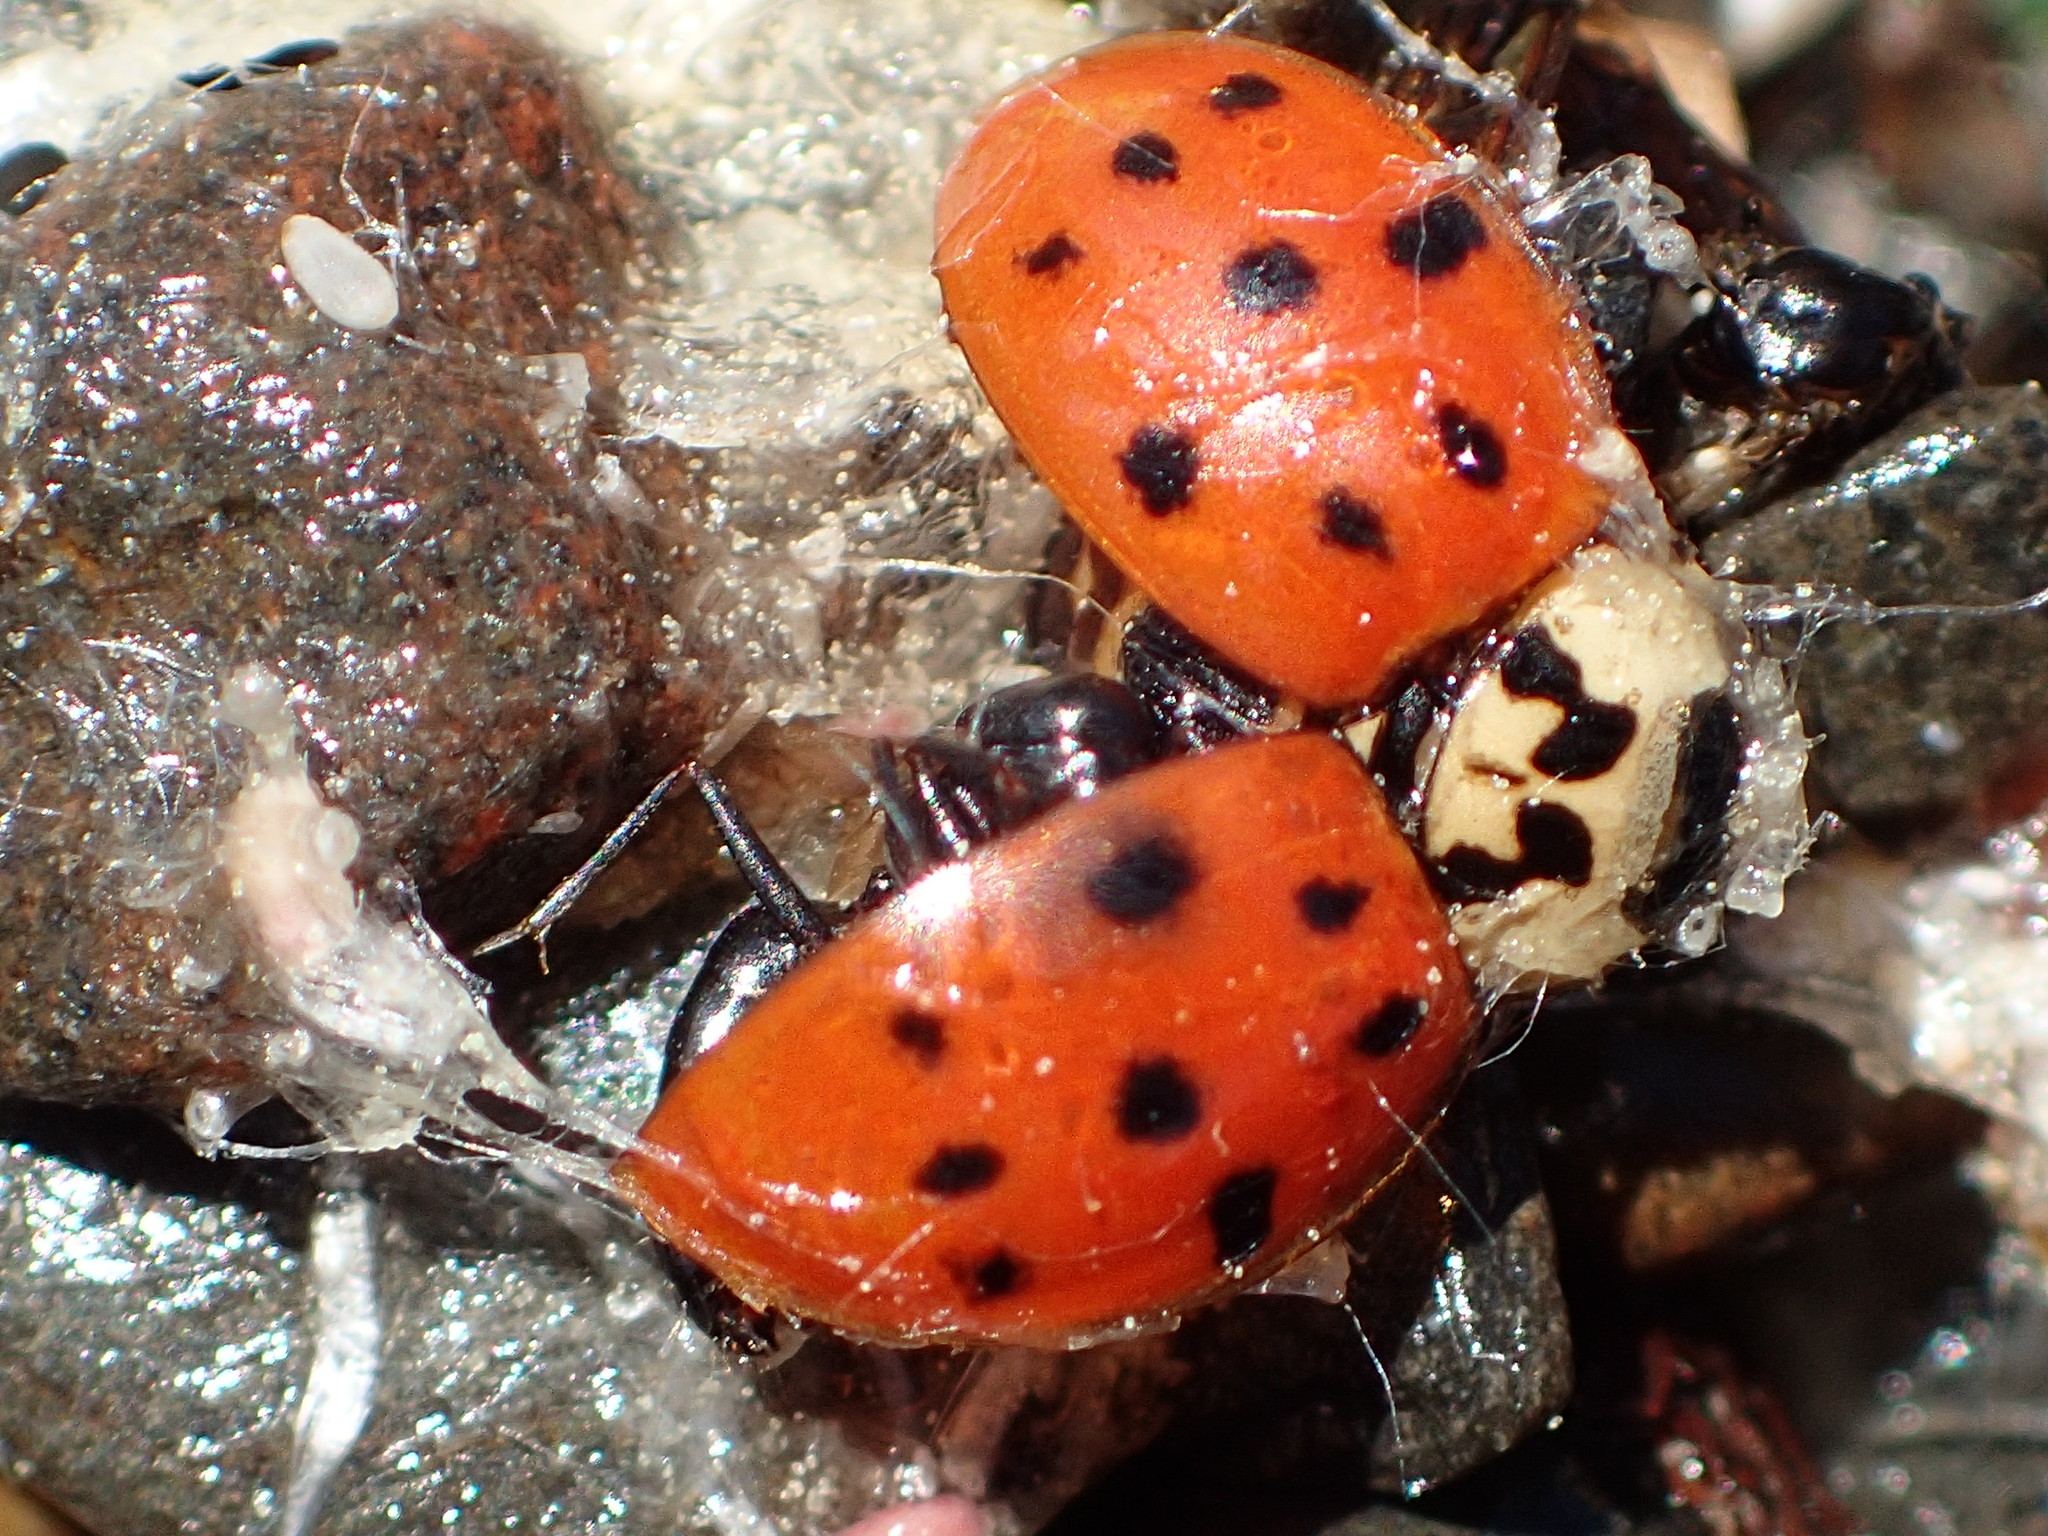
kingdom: Animalia
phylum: Arthropoda
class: Insecta
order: Coleoptera
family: Coccinellidae
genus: Harmonia
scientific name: Harmonia axyridis
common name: Harlequin ladybird
